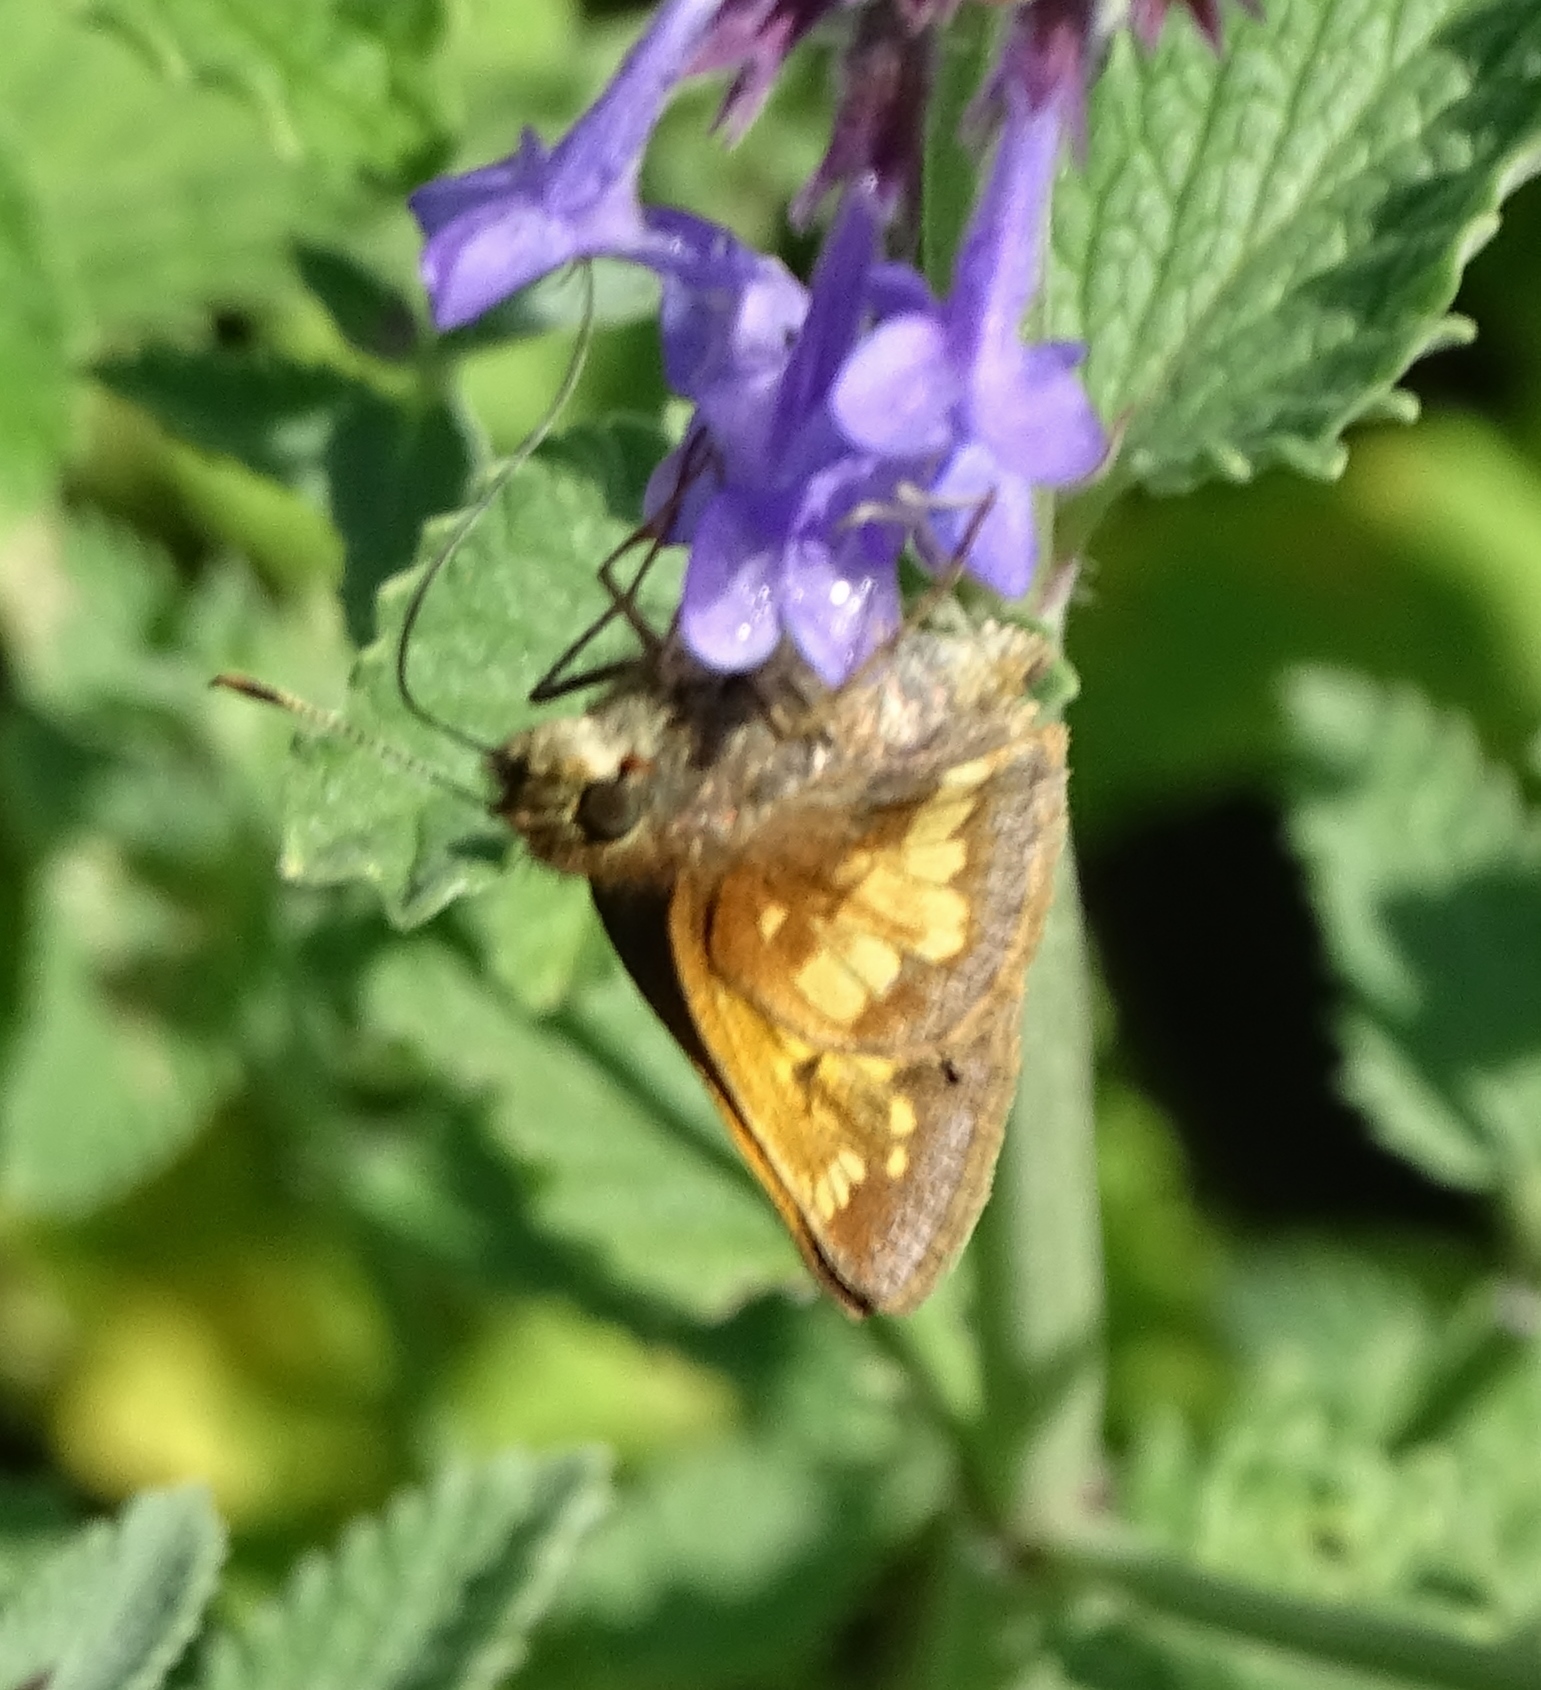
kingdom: Animalia
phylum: Arthropoda
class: Insecta
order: Lepidoptera
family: Hesperiidae
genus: Lon
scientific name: Lon hobomok
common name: Hobomok skipper
